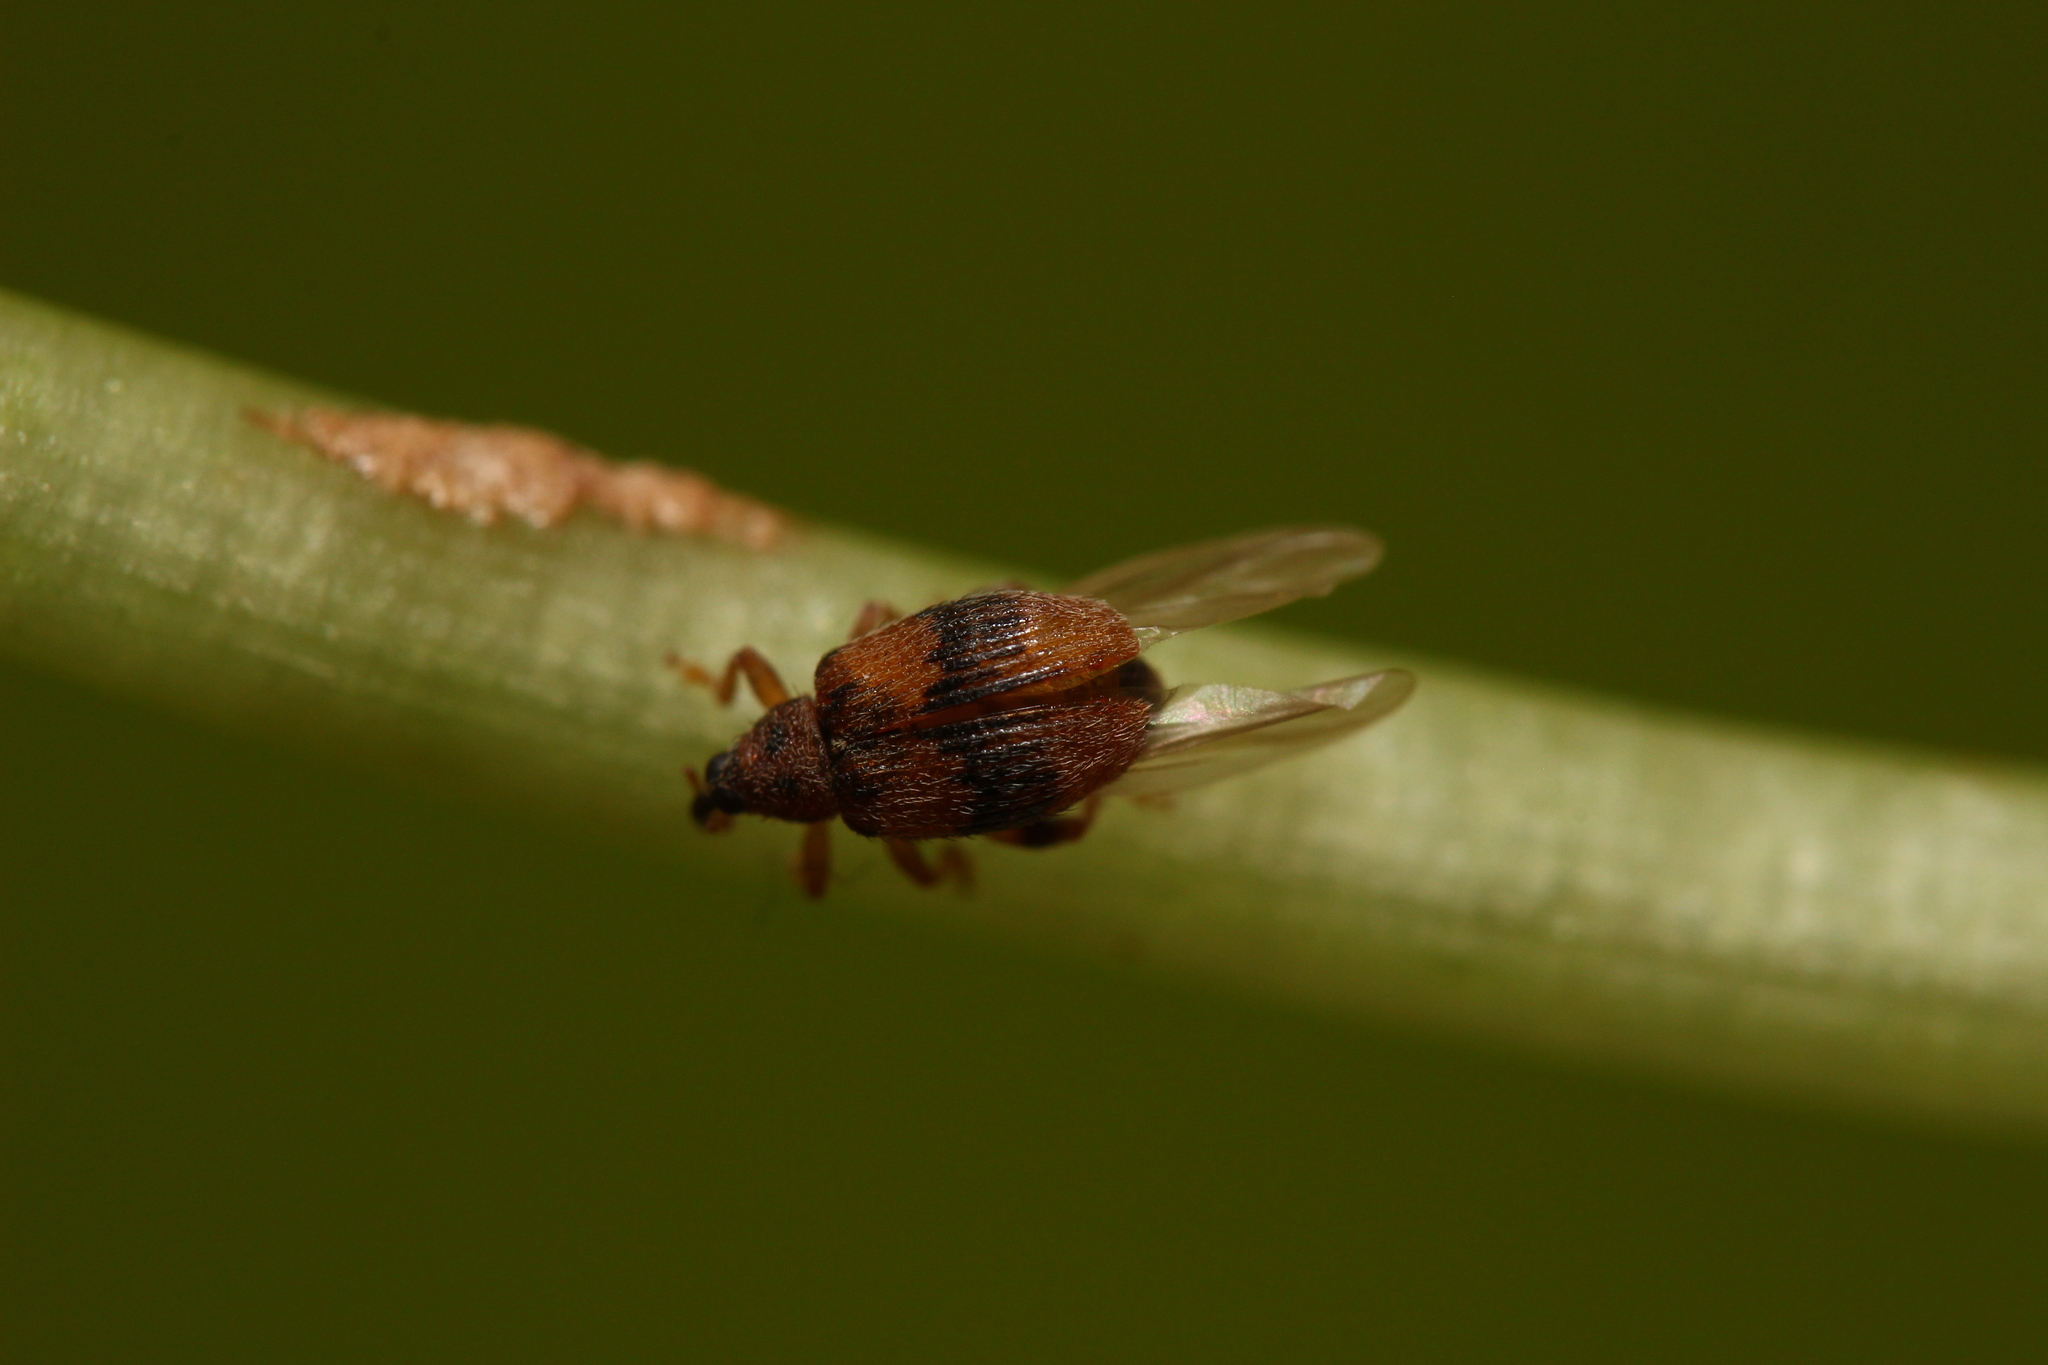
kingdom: Animalia
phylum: Arthropoda
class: Insecta
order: Coleoptera
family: Curculionidae
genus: Rhynchaenus
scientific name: Rhynchaenus xylostei
